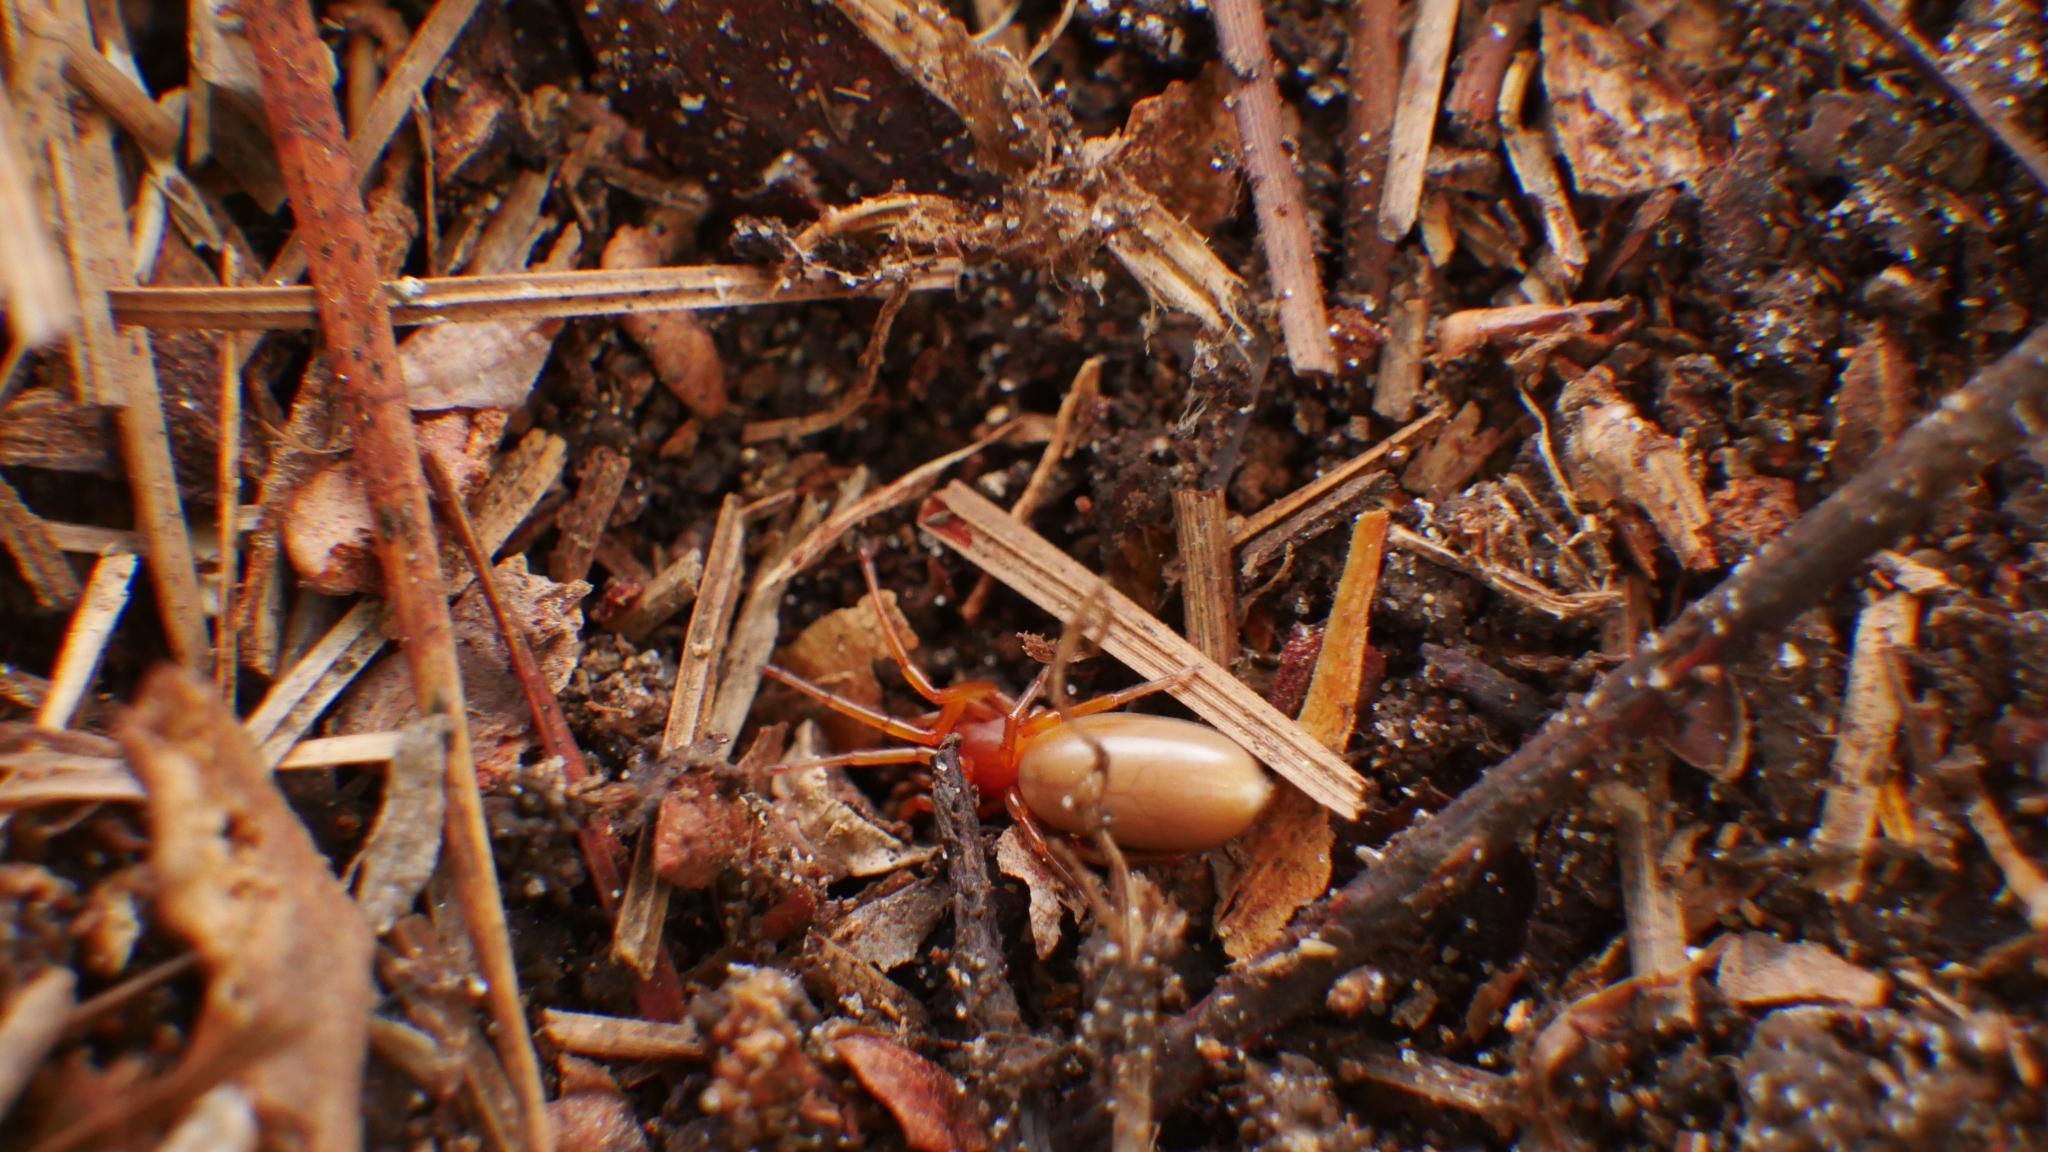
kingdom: Animalia
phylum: Arthropoda
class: Arachnida
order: Araneae
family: Dysderidae
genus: Dysdera
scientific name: Dysdera crocata
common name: Woodlouse spider
